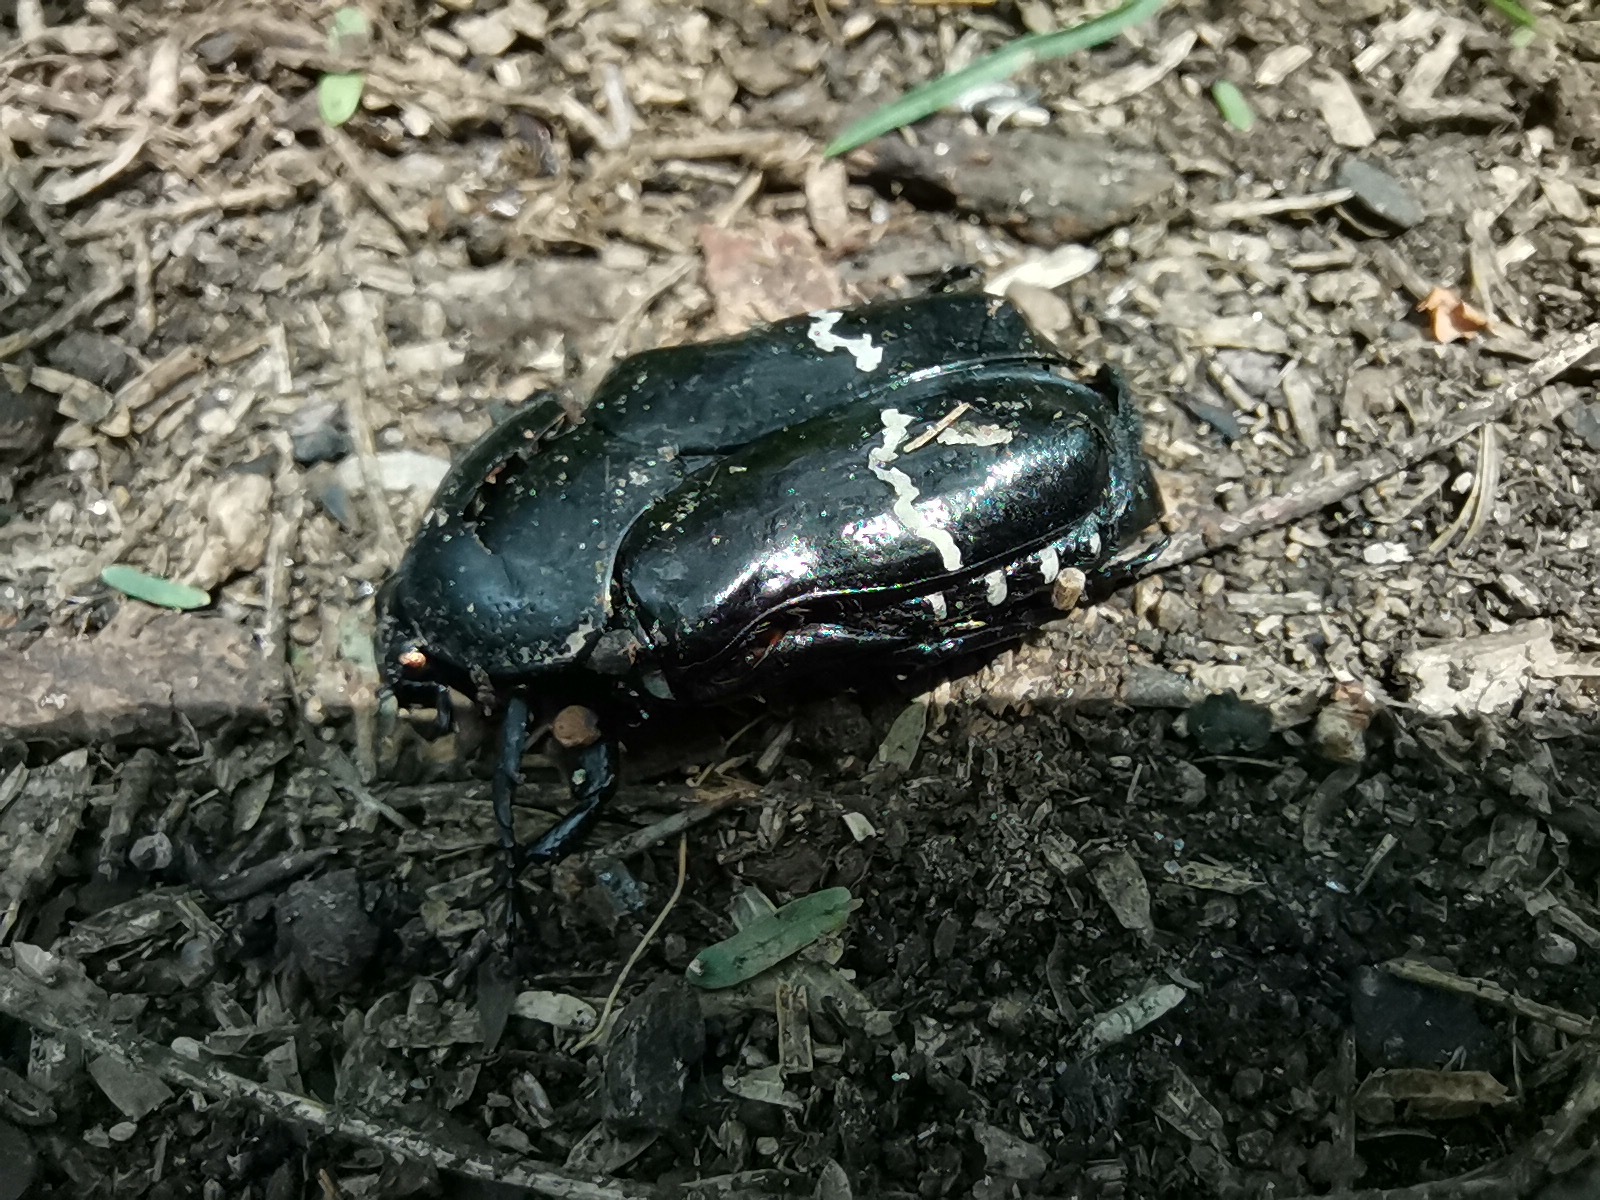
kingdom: Animalia
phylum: Arthropoda
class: Insecta
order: Coleoptera
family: Scarabaeidae
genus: Gymnetina
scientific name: Gymnetina alboscripta
